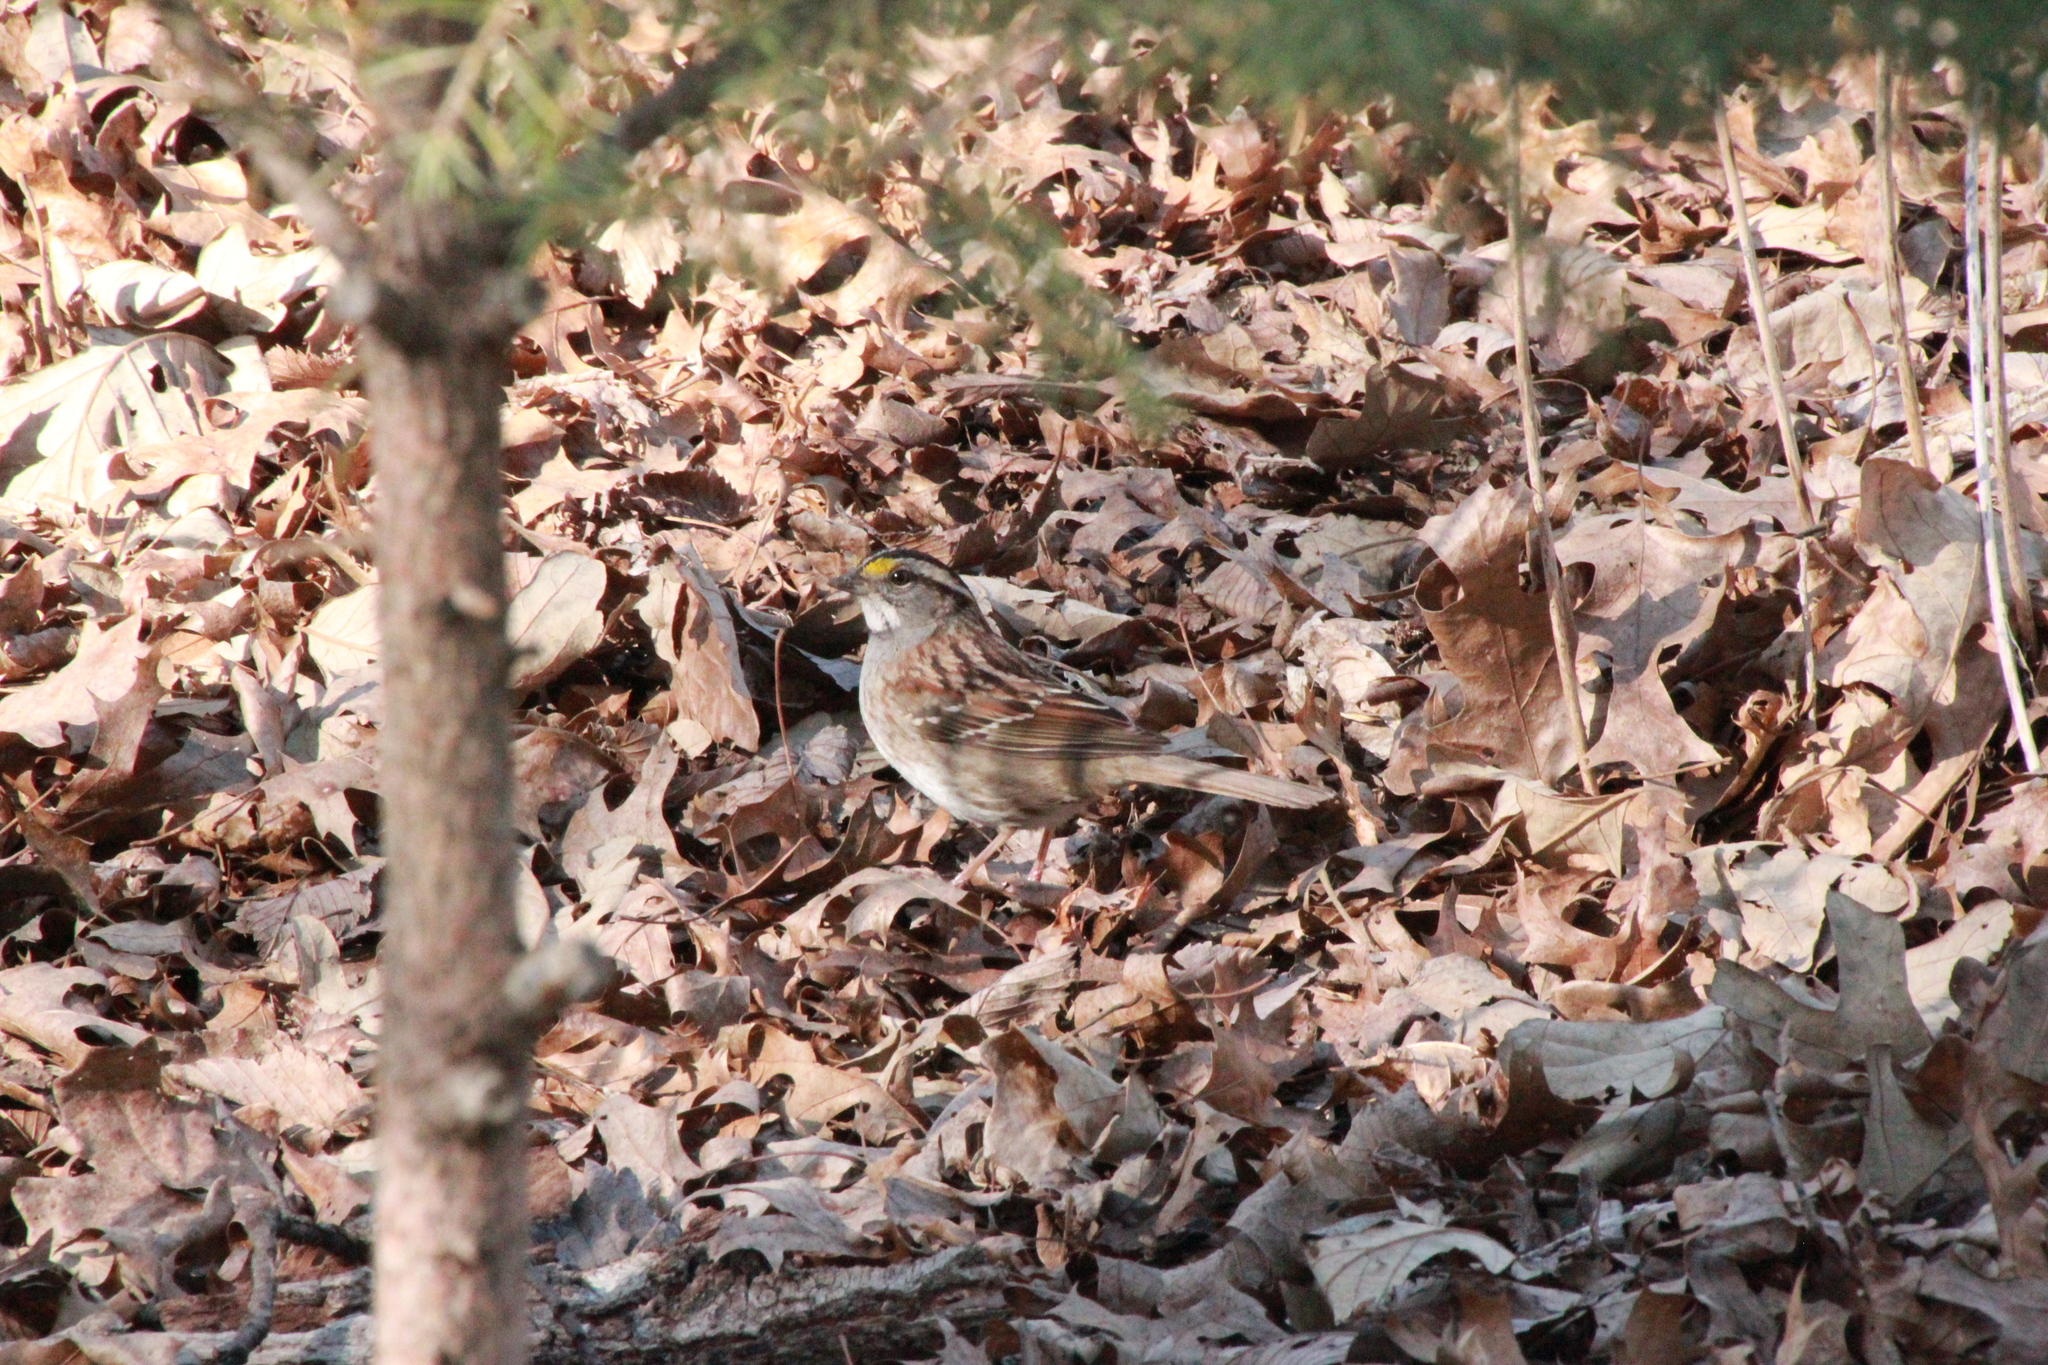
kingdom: Animalia
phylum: Chordata
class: Aves
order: Passeriformes
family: Passerellidae
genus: Zonotrichia
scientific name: Zonotrichia albicollis
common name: White-throated sparrow
